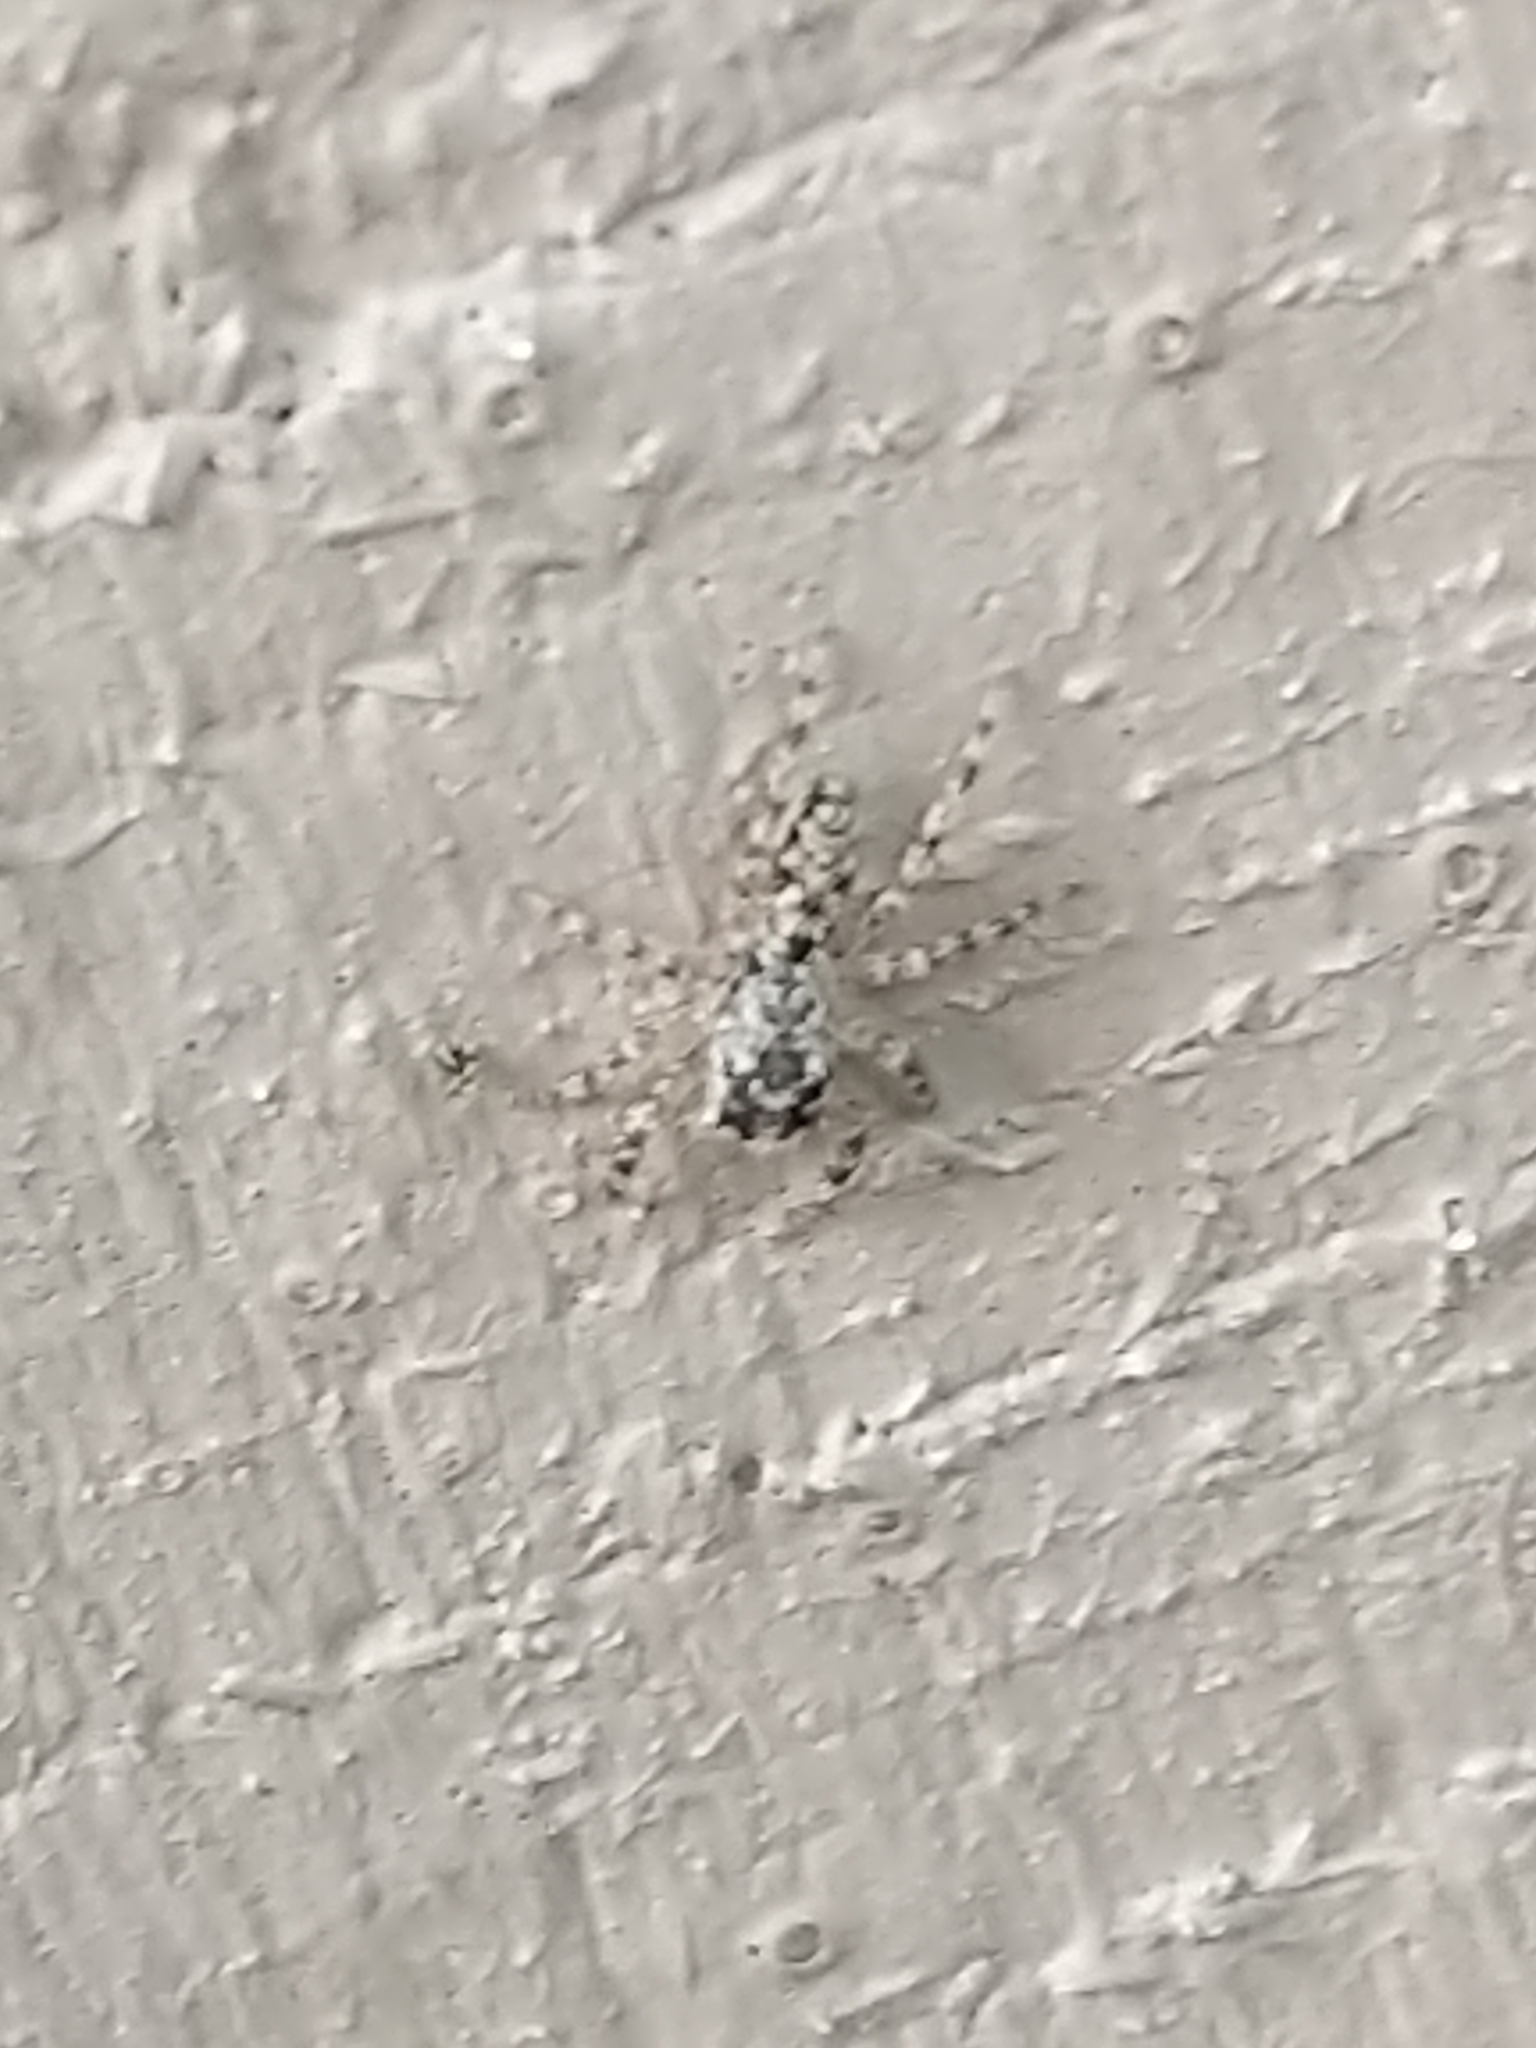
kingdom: Animalia
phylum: Arthropoda
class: Arachnida
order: Araneae
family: Salticidae
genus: Platycryptus
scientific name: Platycryptus undatus
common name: Tan jumping spider
